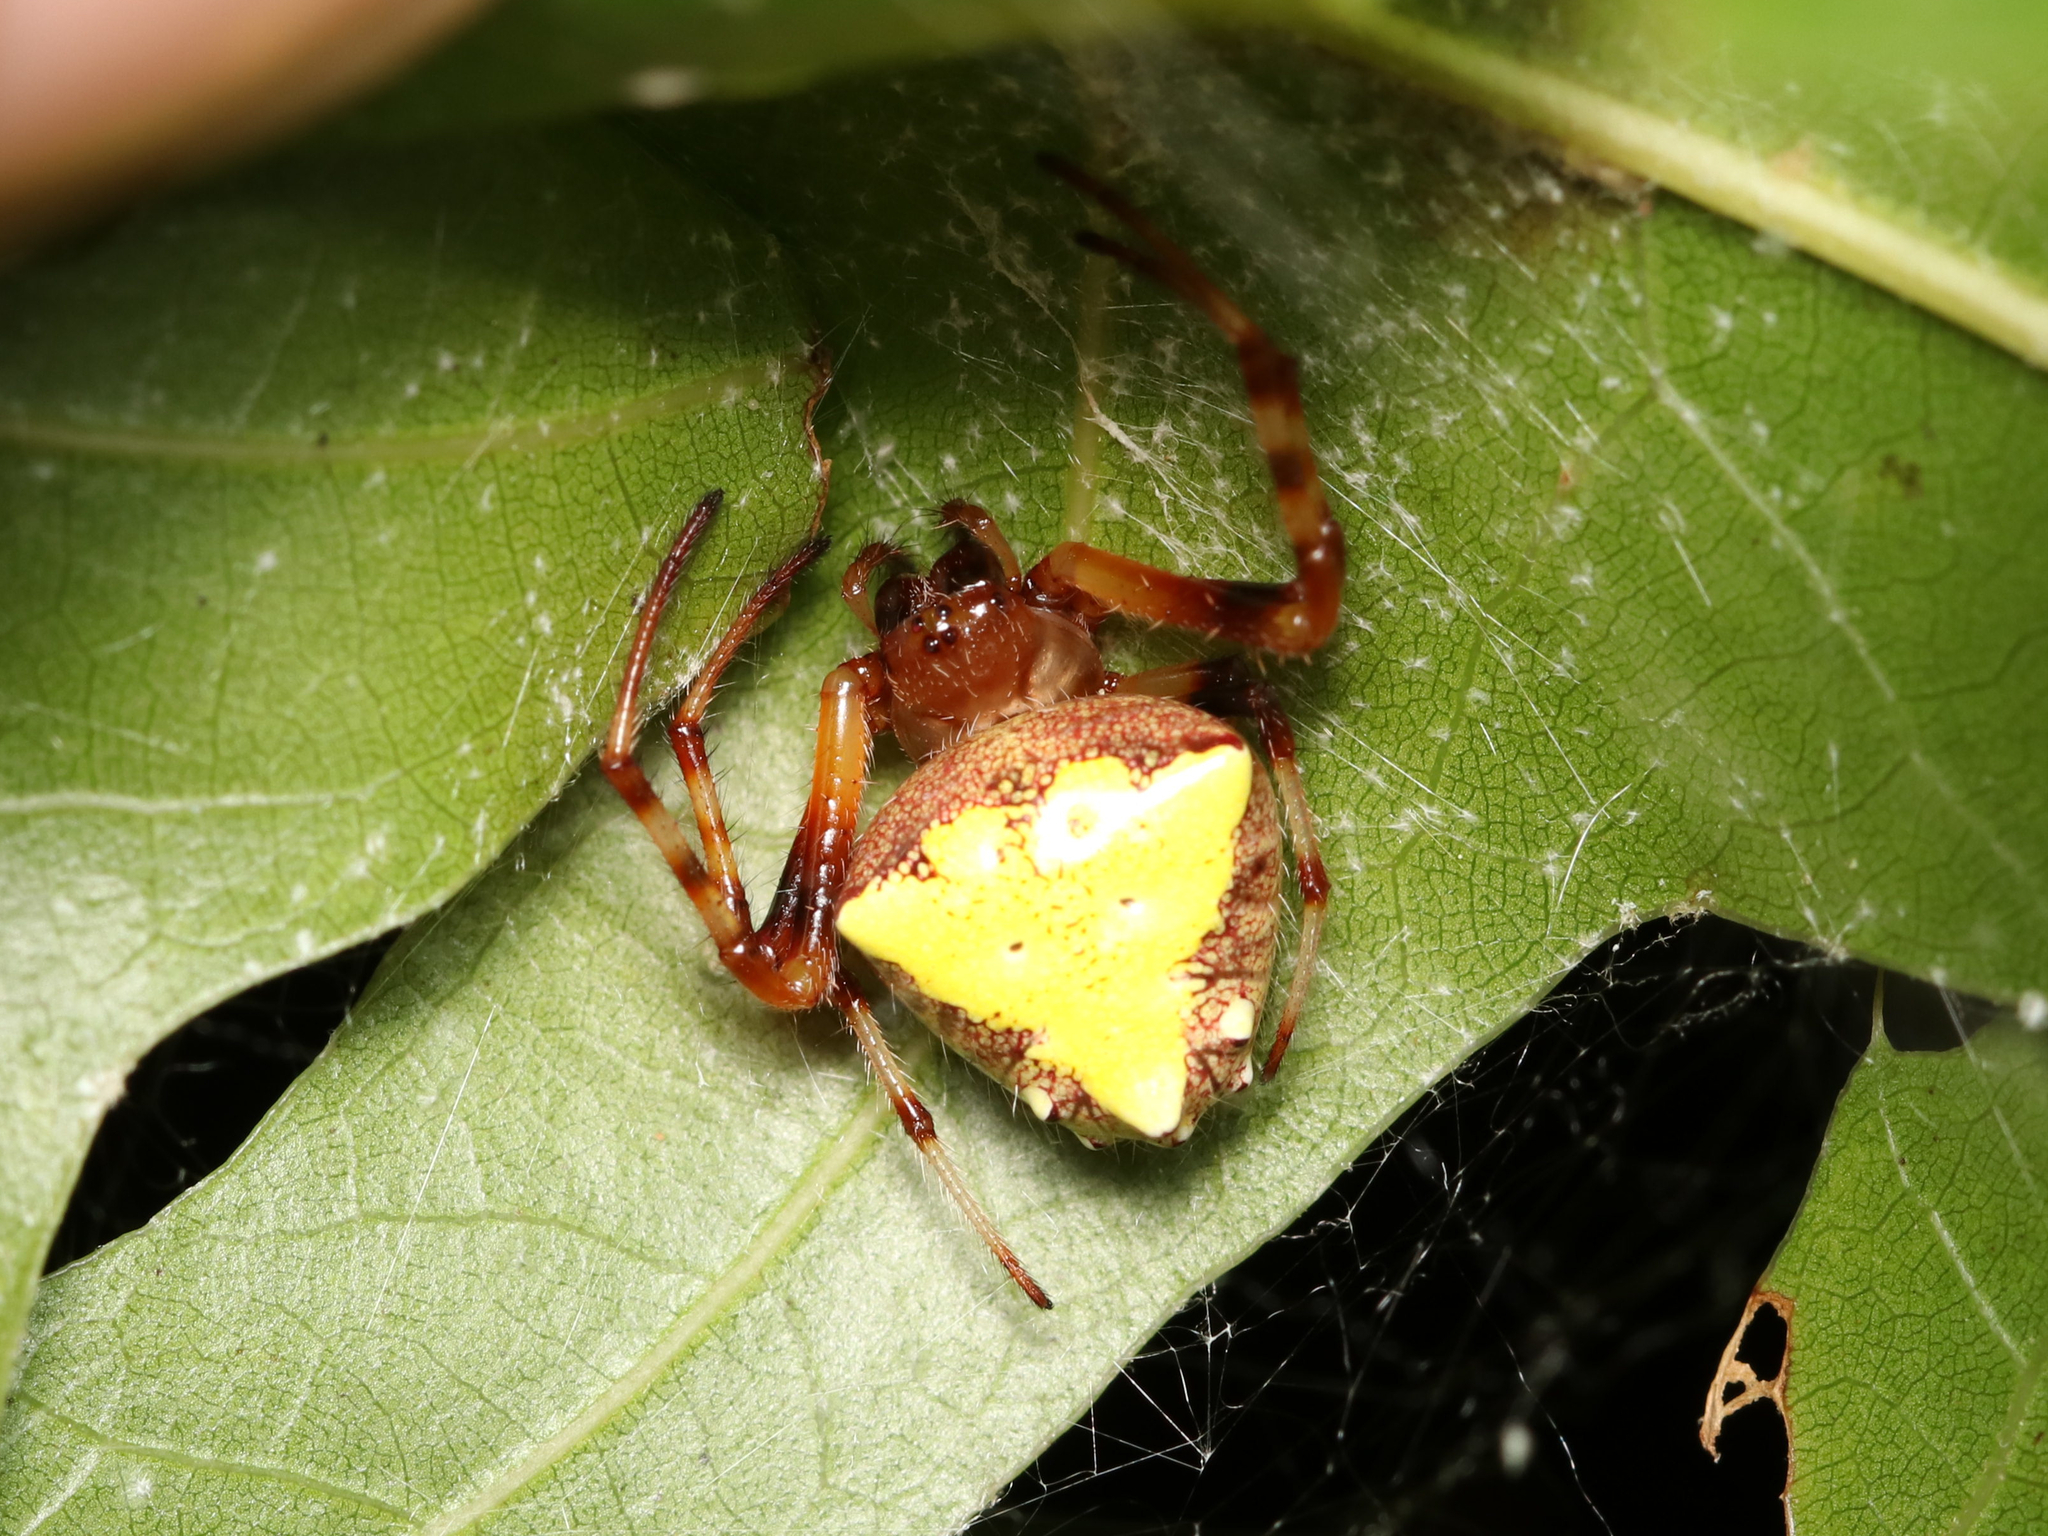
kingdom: Animalia
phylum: Arthropoda
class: Arachnida
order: Araneae
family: Araneidae
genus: Verrucosa
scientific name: Verrucosa arenata
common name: Orb weavers
